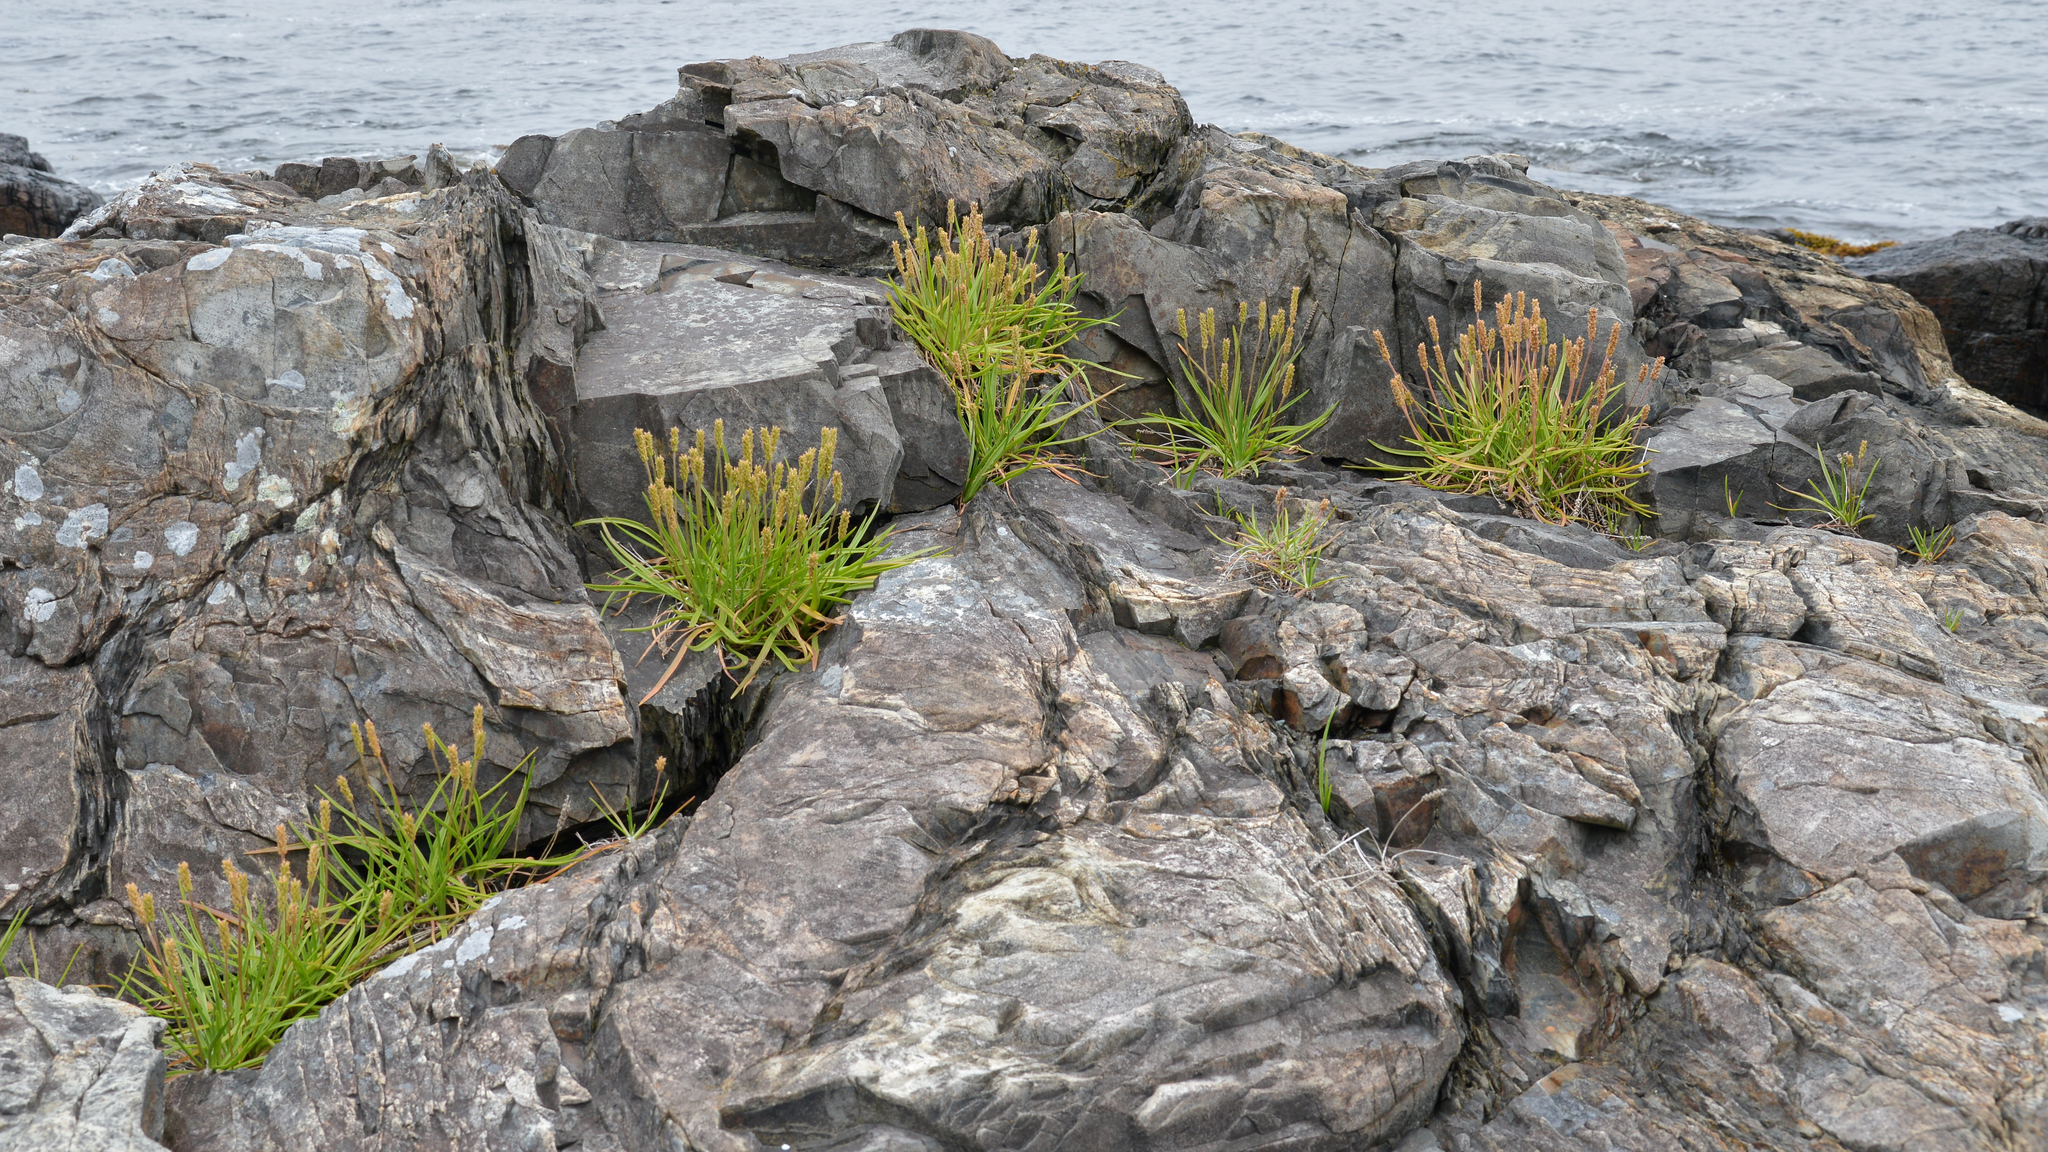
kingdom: Plantae
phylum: Tracheophyta
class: Magnoliopsida
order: Lamiales
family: Plantaginaceae
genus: Plantago
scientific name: Plantago maritima
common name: Sea plantain
